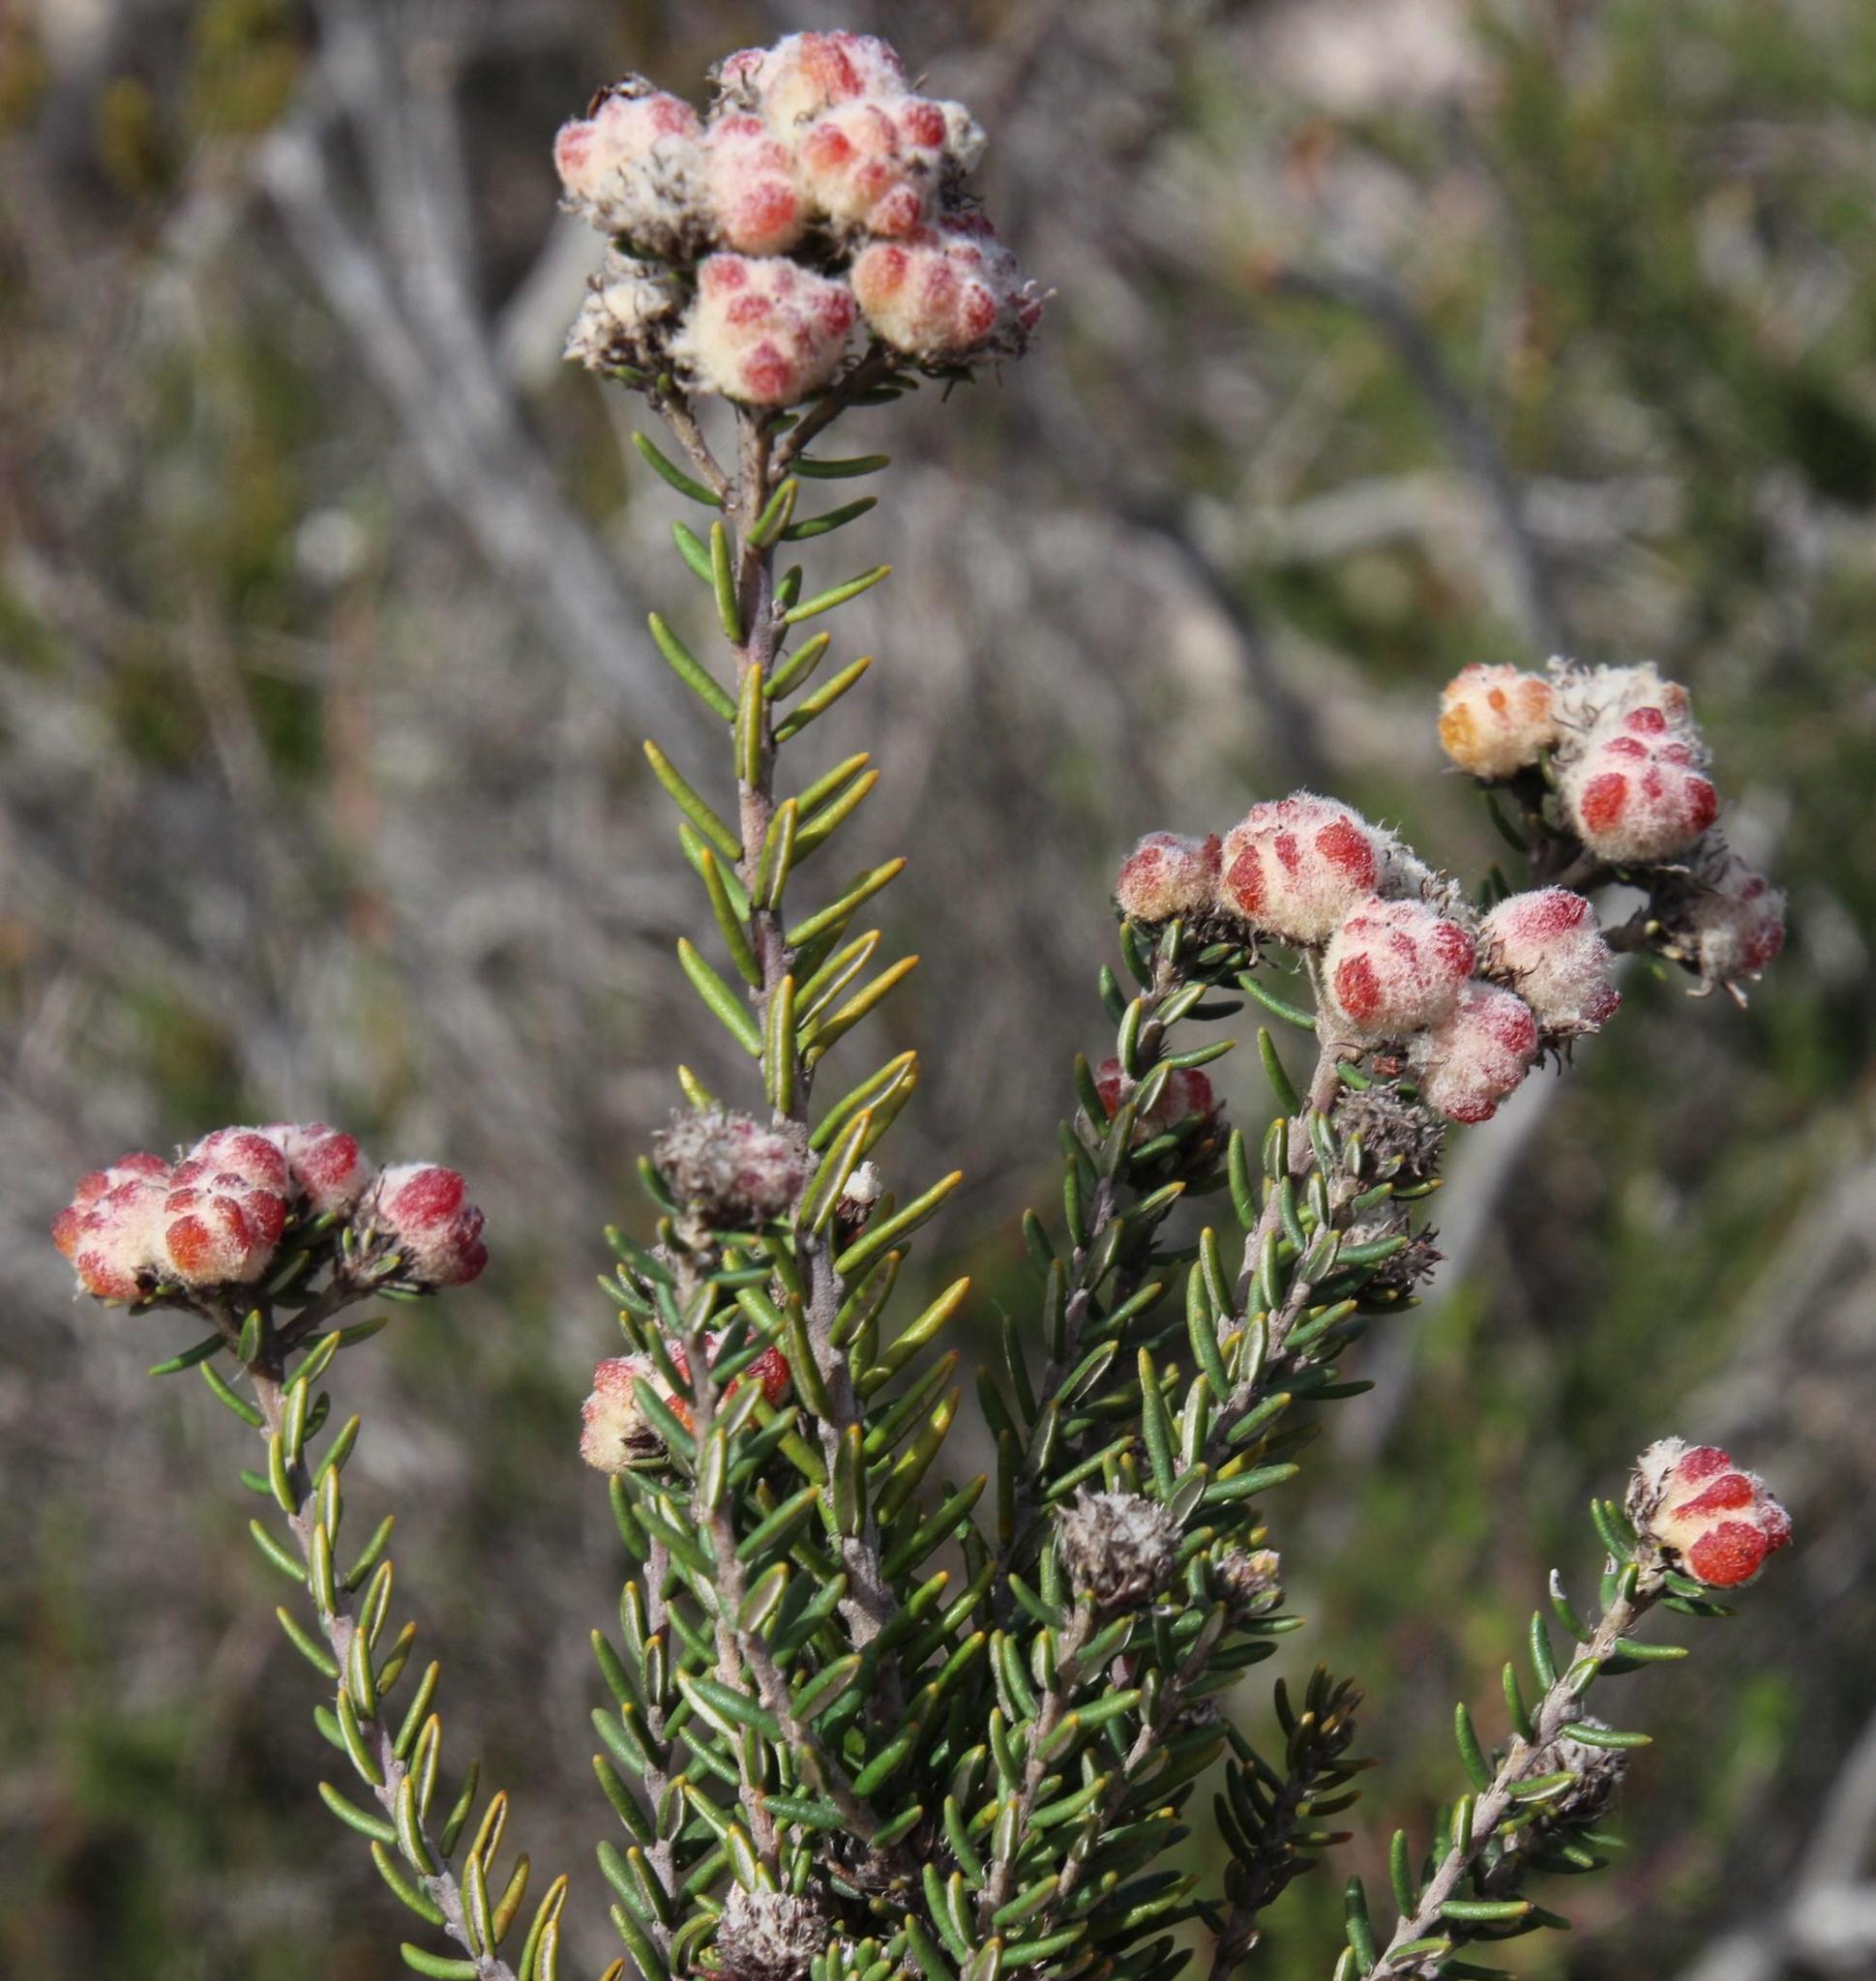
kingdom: Plantae
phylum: Tracheophyta
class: Magnoliopsida
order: Rosales
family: Rhamnaceae
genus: Trichocephalus
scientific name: Trichocephalus stipularis
